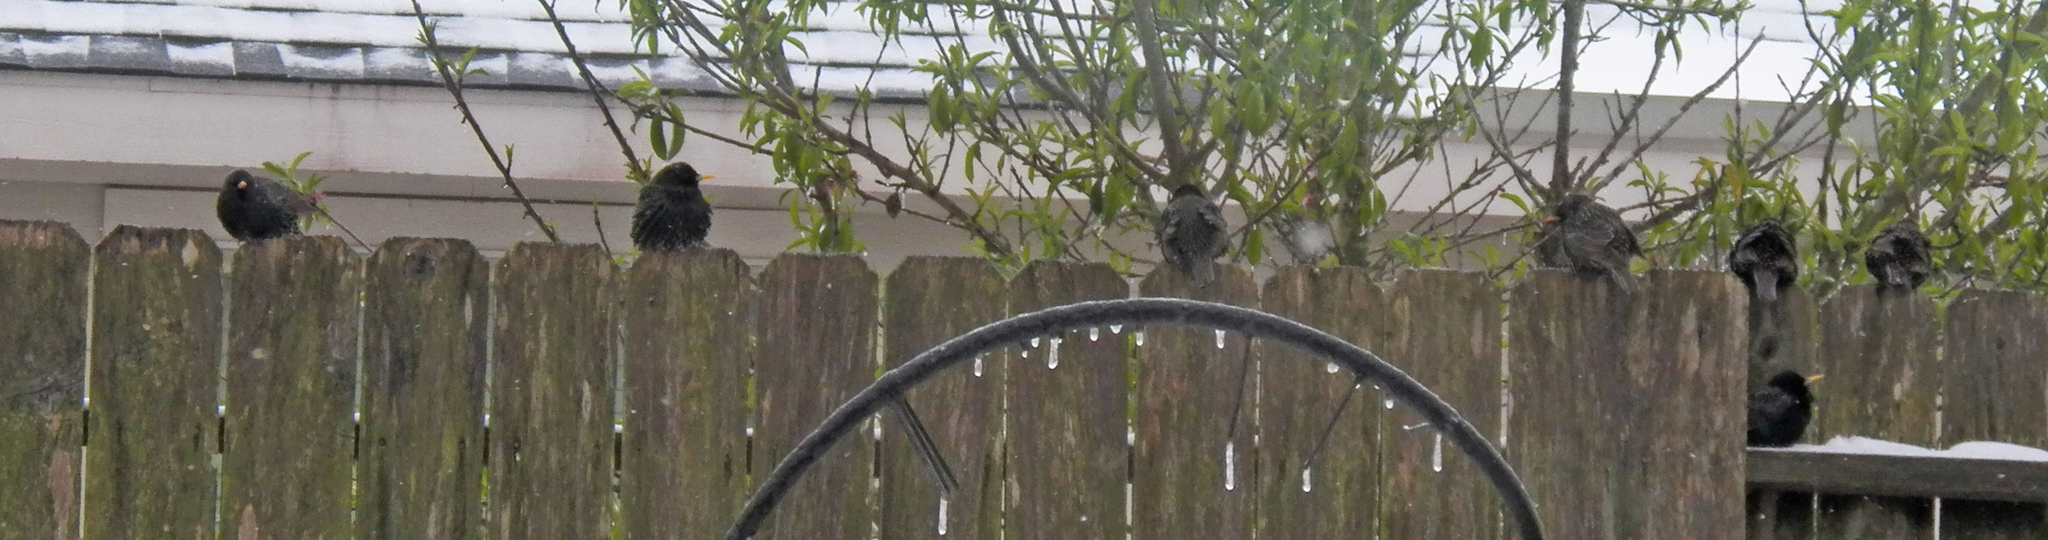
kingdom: Animalia
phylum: Chordata
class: Aves
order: Passeriformes
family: Sturnidae
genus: Sturnus
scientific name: Sturnus vulgaris
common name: Common starling
